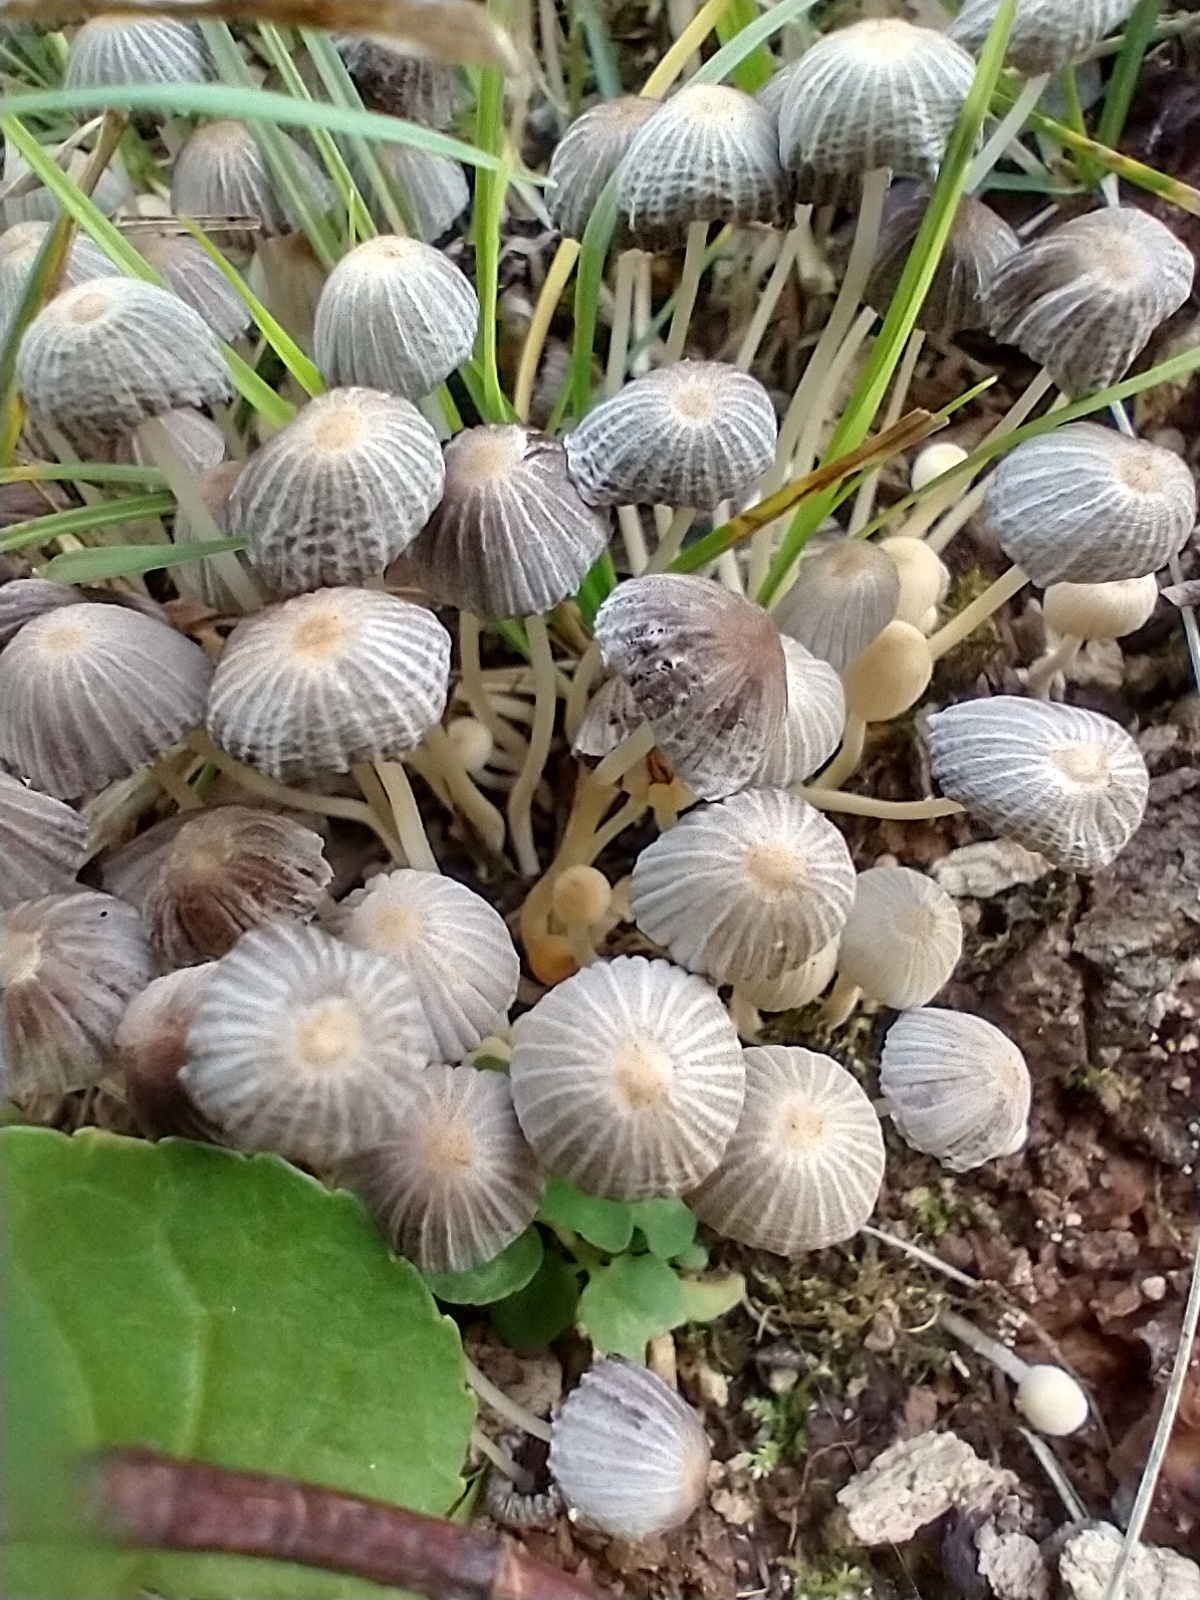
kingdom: Fungi
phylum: Basidiomycota
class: Agaricomycetes
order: Agaricales
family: Psathyrellaceae
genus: Coprinellus
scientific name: Coprinellus disseminatus
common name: Fairies' bonnets
